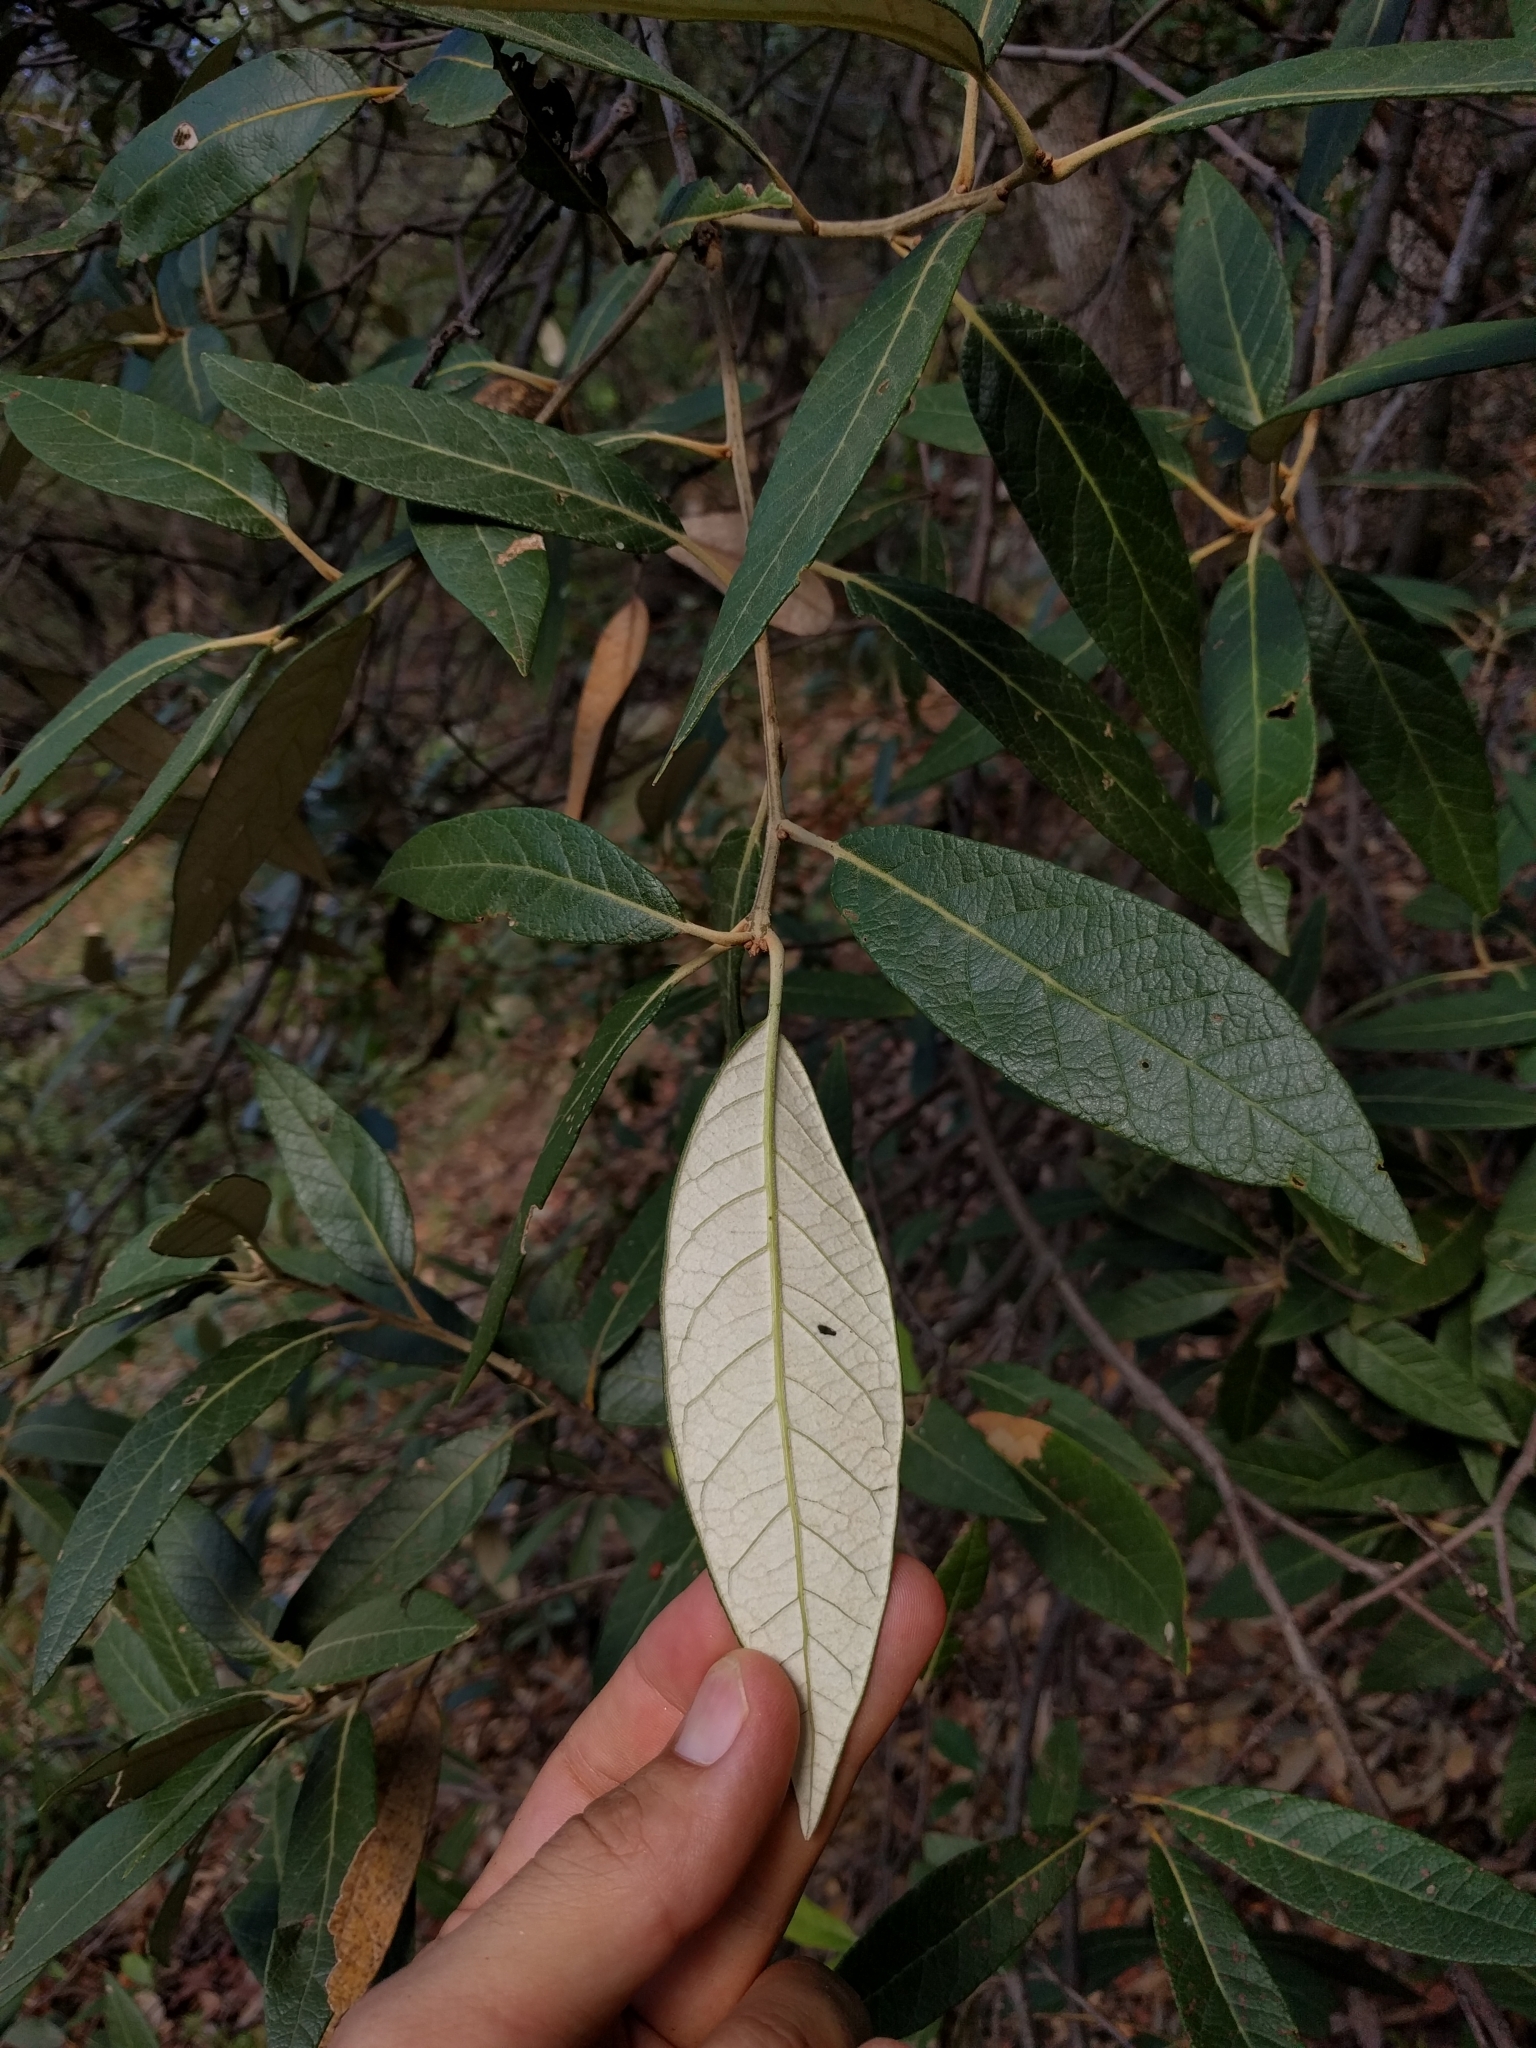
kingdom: Plantae
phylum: Tracheophyta
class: Magnoliopsida
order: Fagales
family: Fagaceae
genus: Quercus
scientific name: Quercus hypoleucoides
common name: Silverleaf oak
